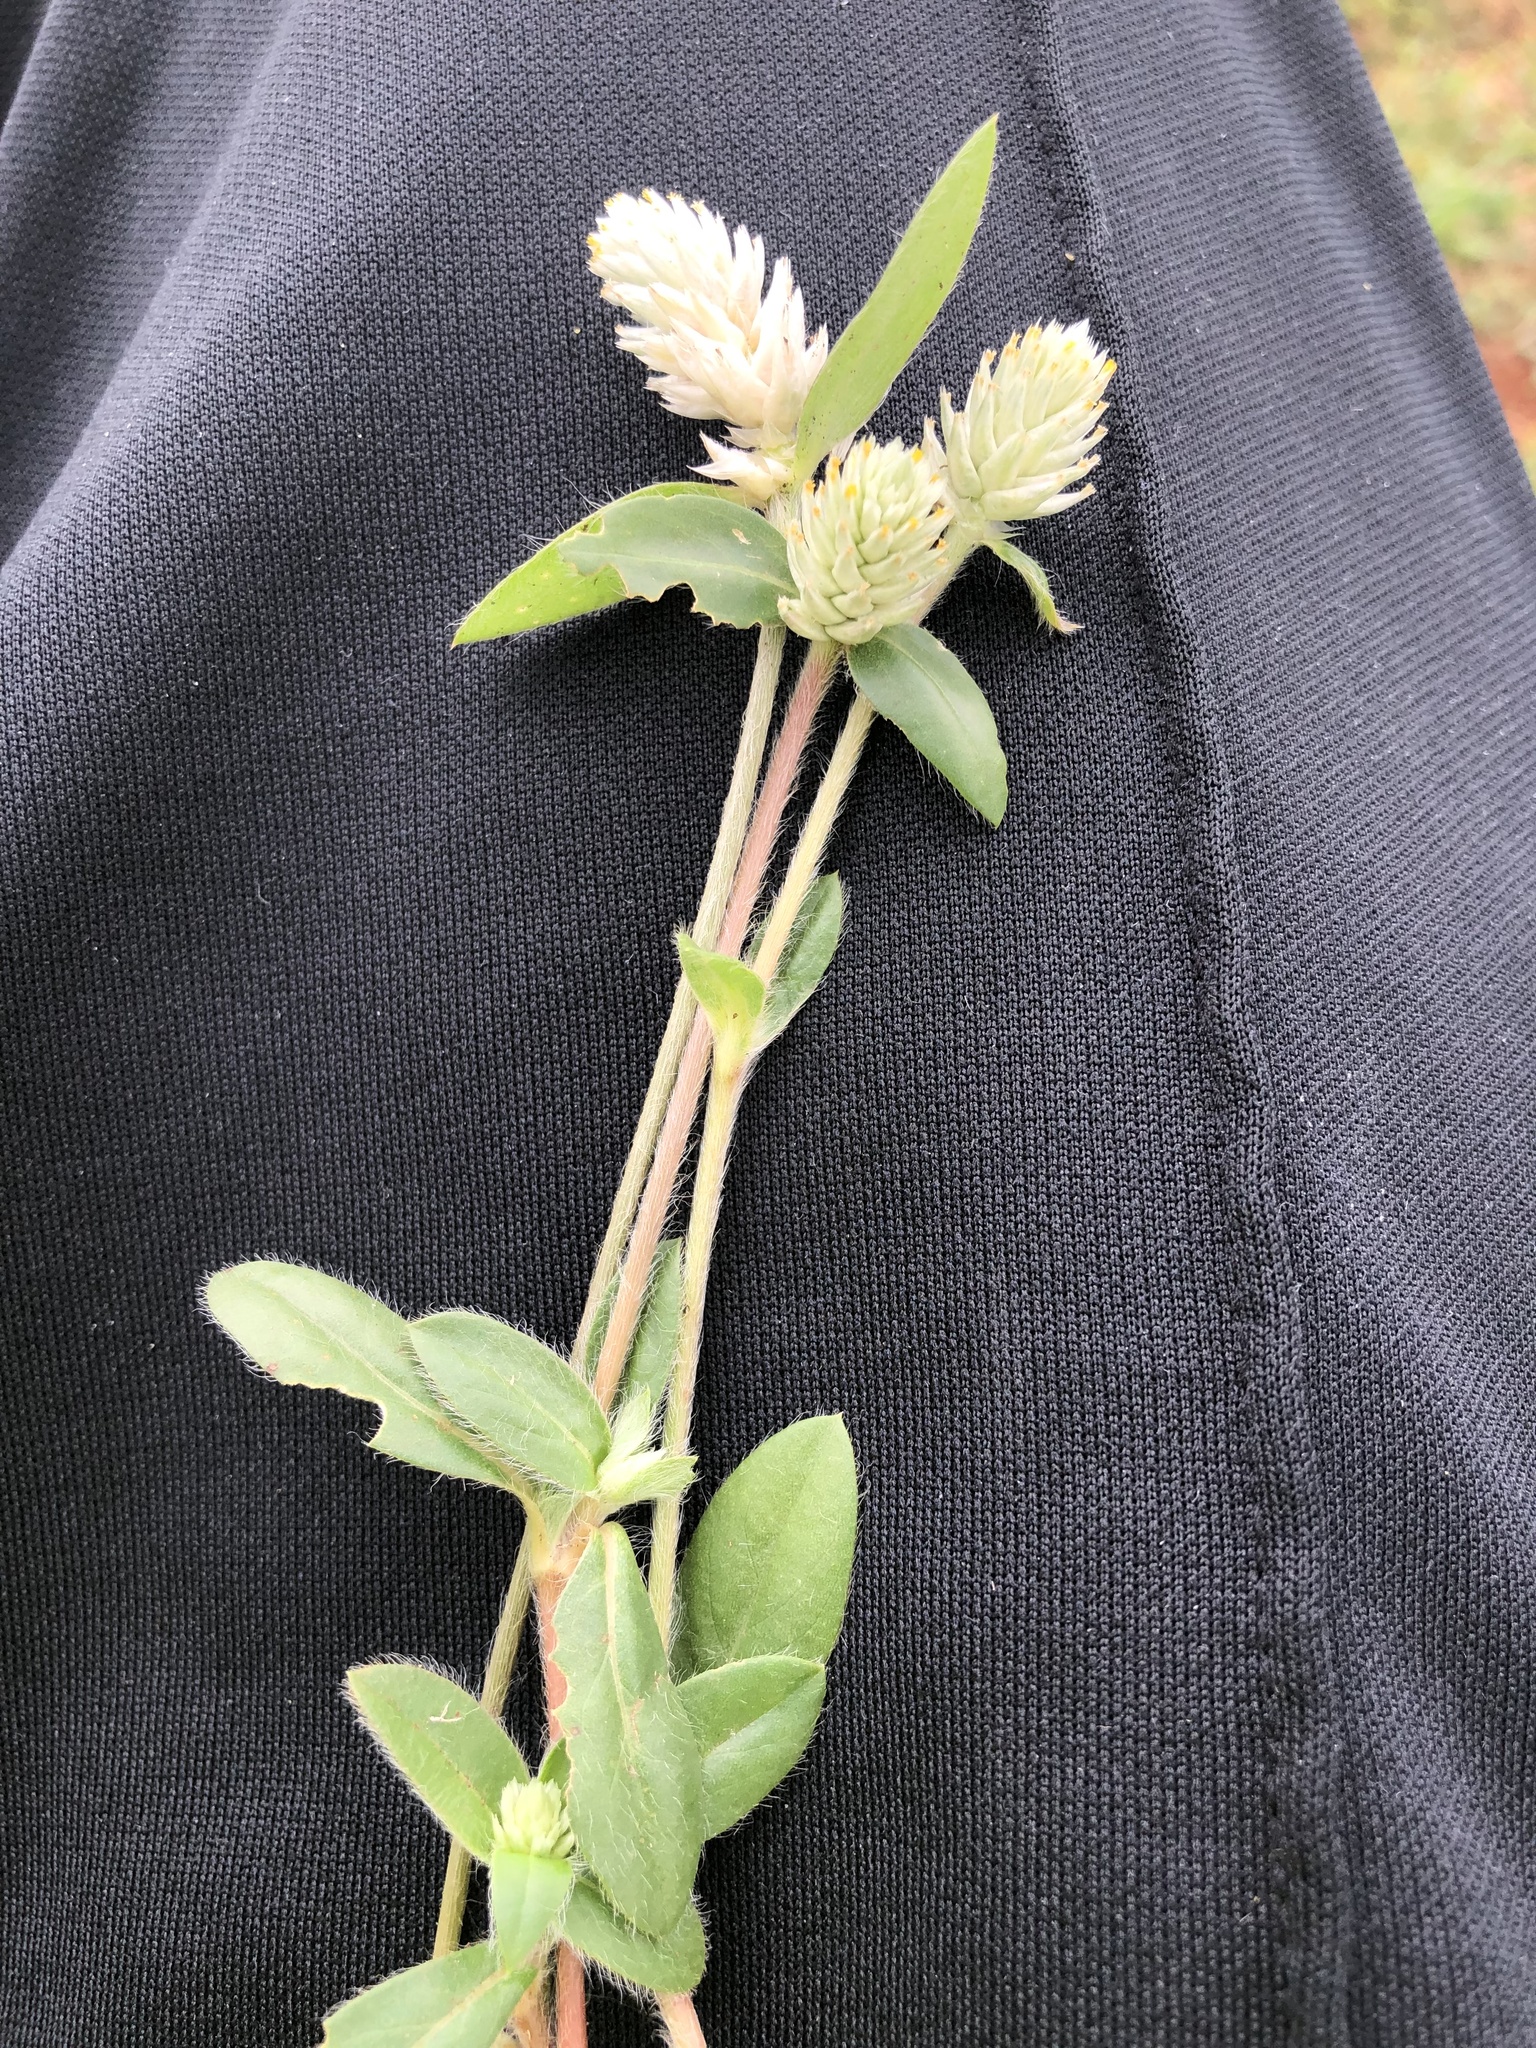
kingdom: Plantae
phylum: Tracheophyta
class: Magnoliopsida
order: Caryophyllales
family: Amaranthaceae
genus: Gomphrena
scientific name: Gomphrena celosioides
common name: Gomphrena-weed
